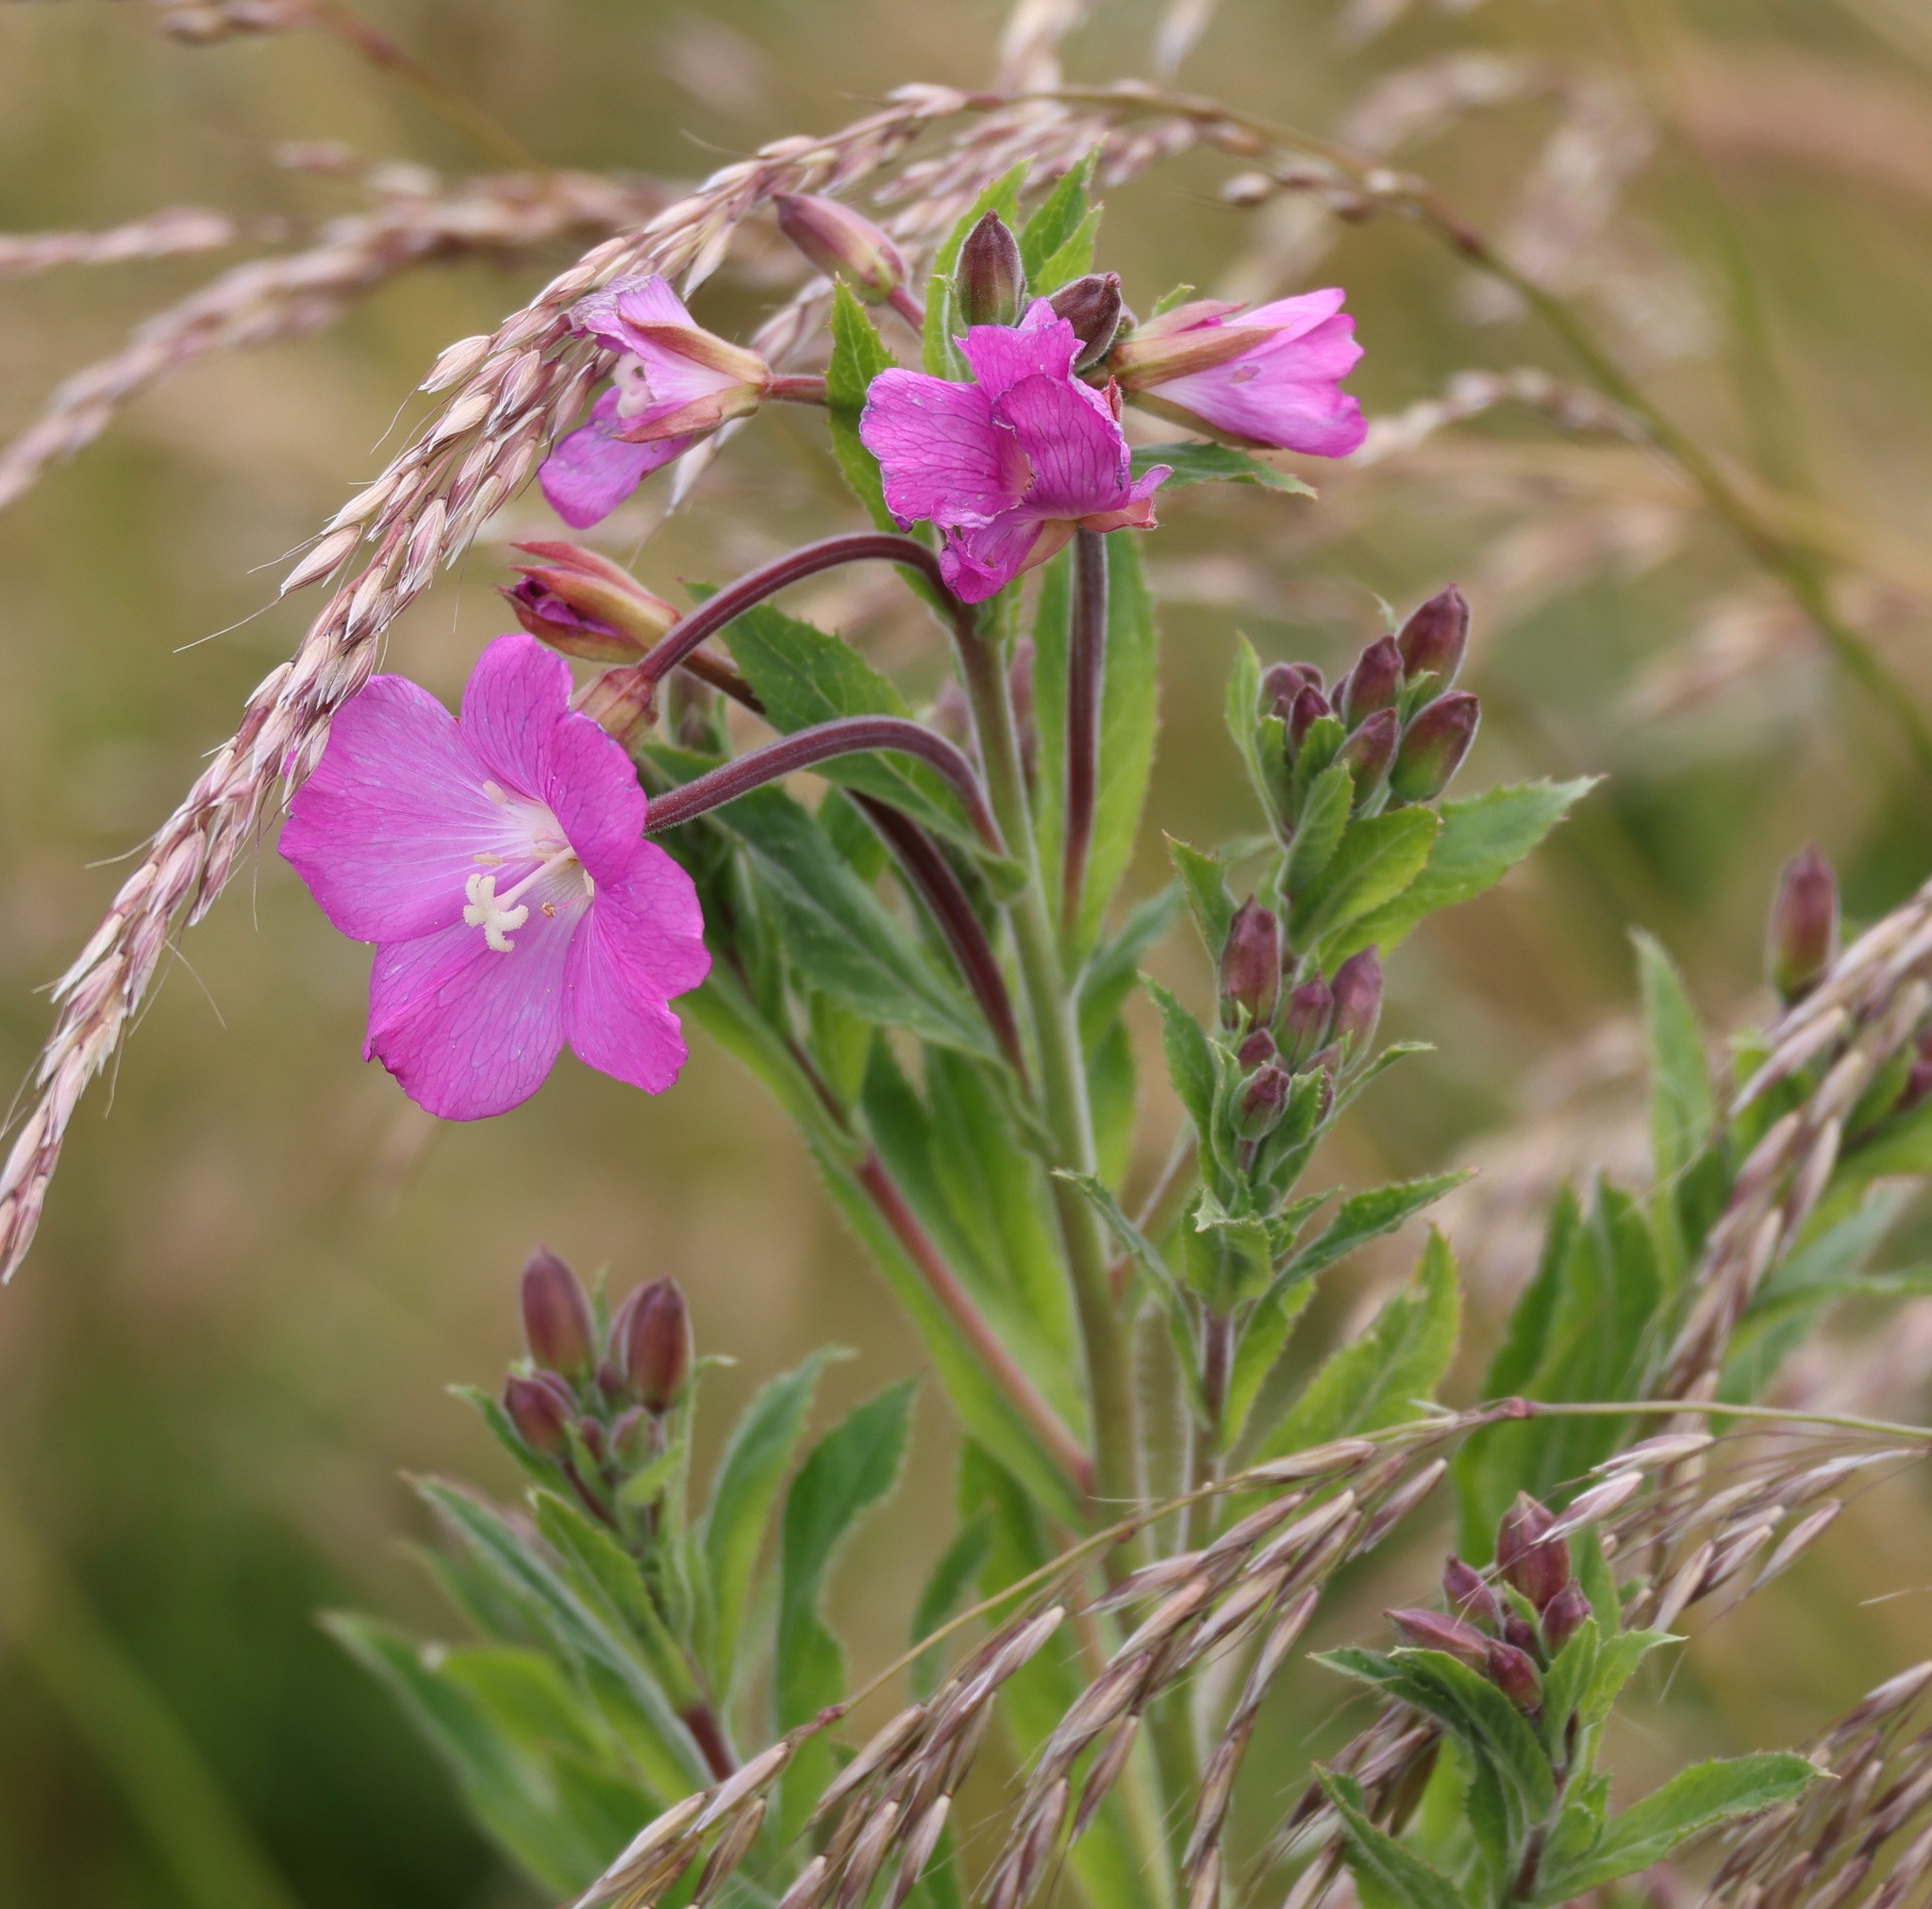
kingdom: Plantae
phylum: Tracheophyta
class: Magnoliopsida
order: Myrtales
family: Onagraceae
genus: Epilobium
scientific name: Epilobium hirsutum
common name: Great willowherb
